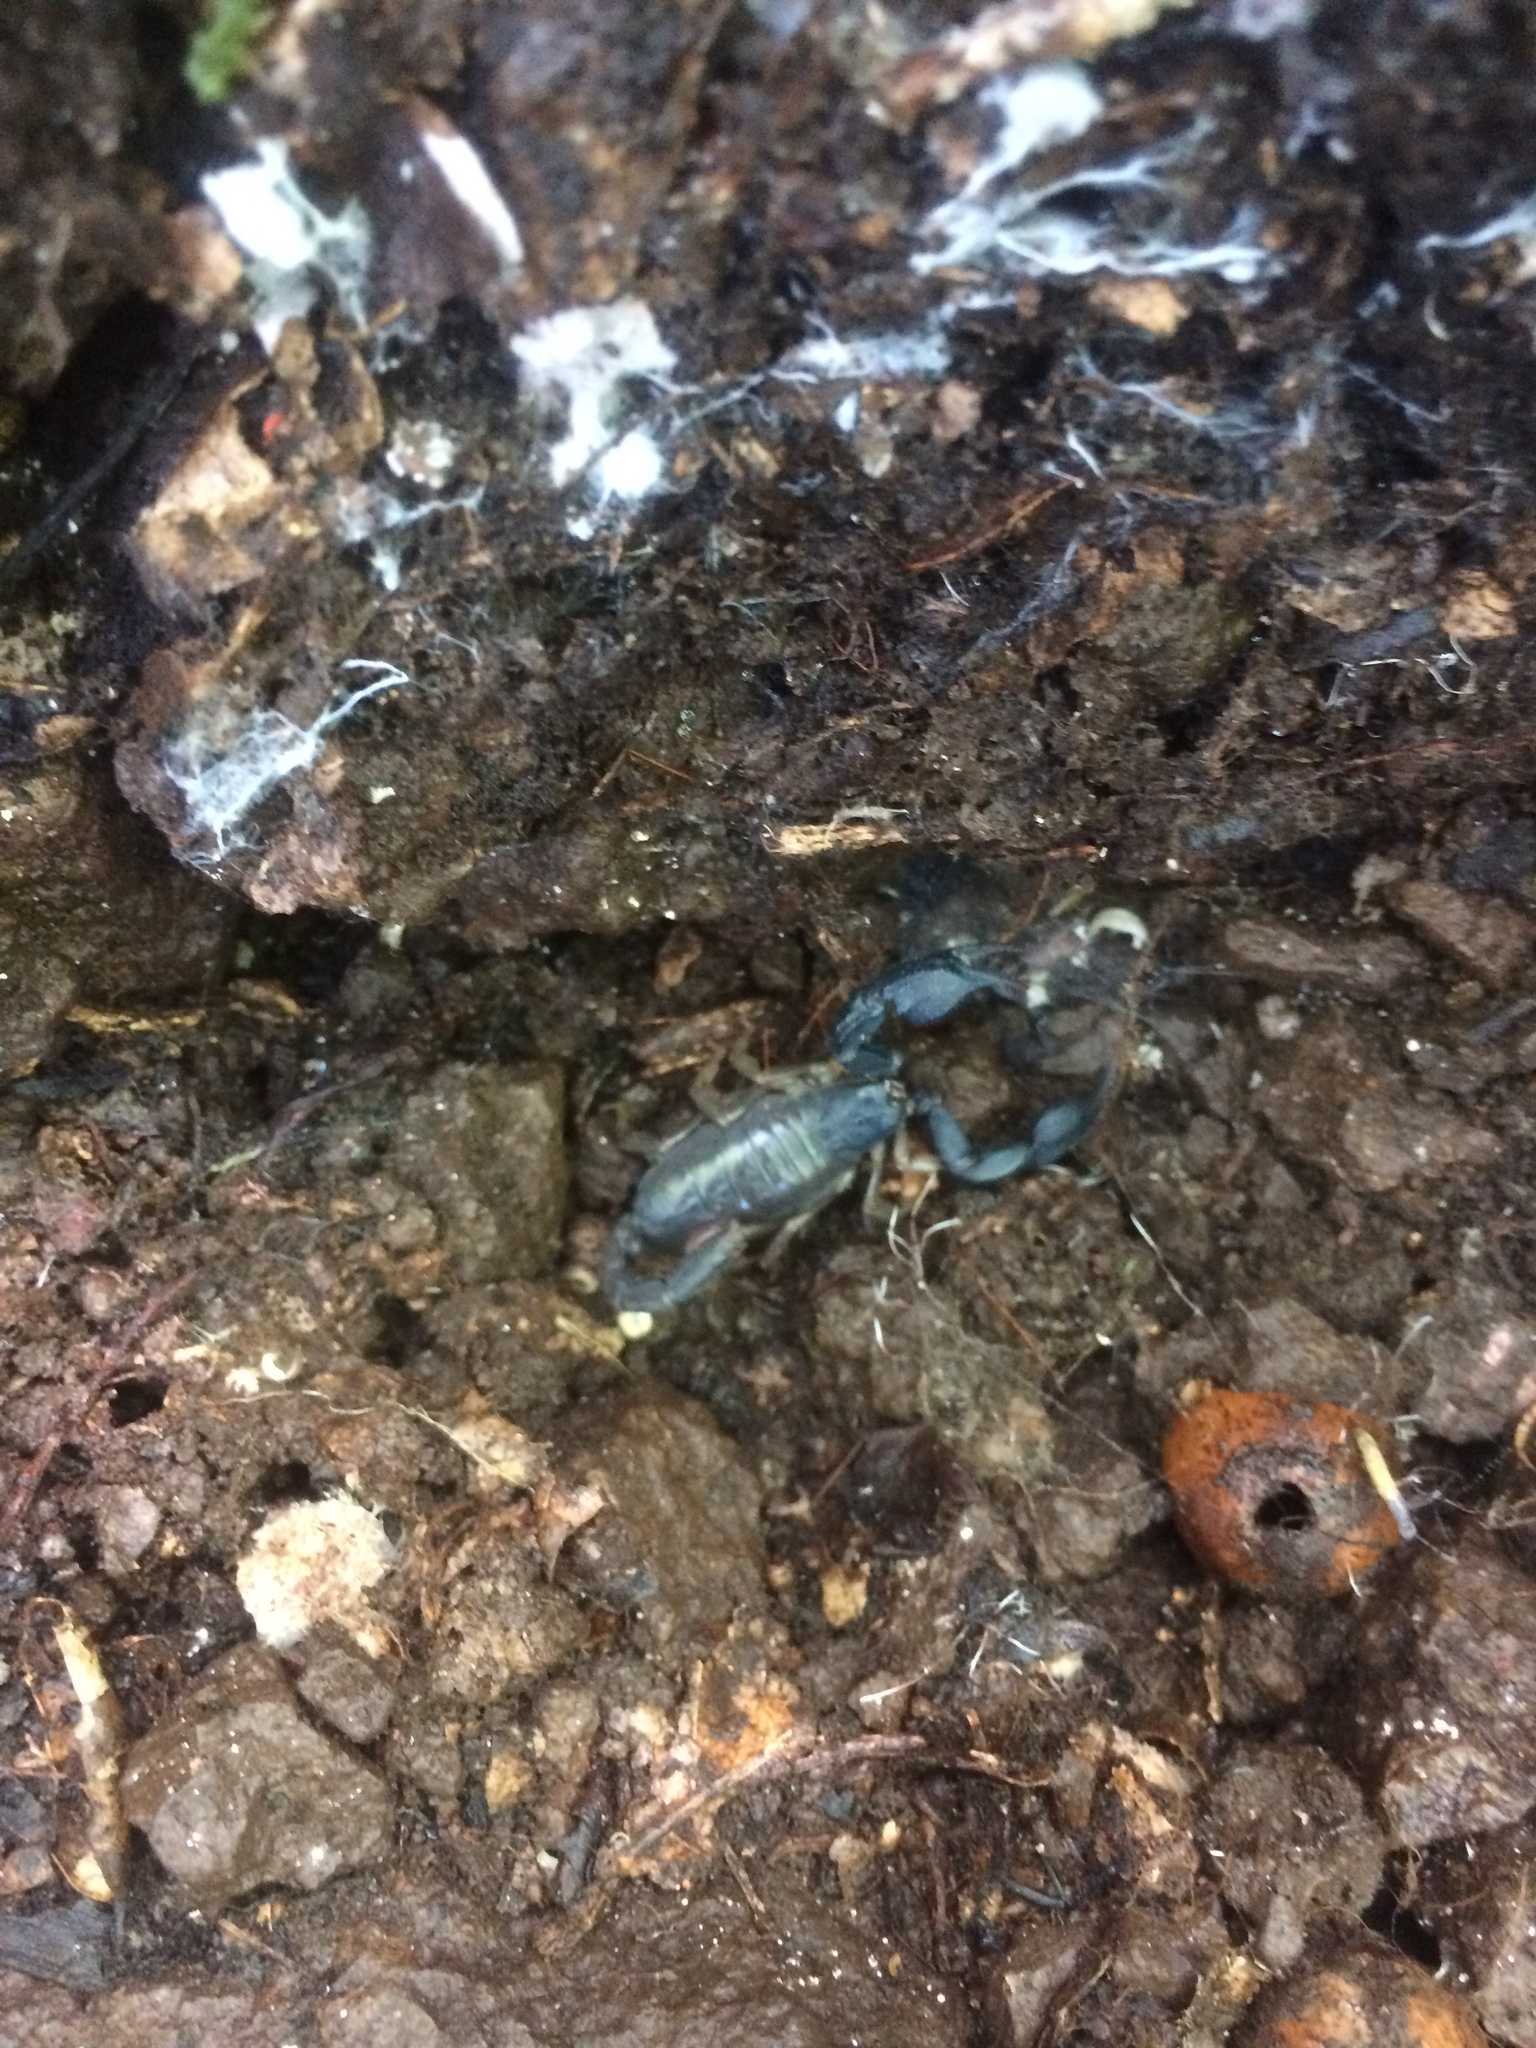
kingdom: Animalia
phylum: Arthropoda
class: Arachnida
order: Scorpiones
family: Chactidae
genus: Uroctonus
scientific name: Uroctonus mordax
